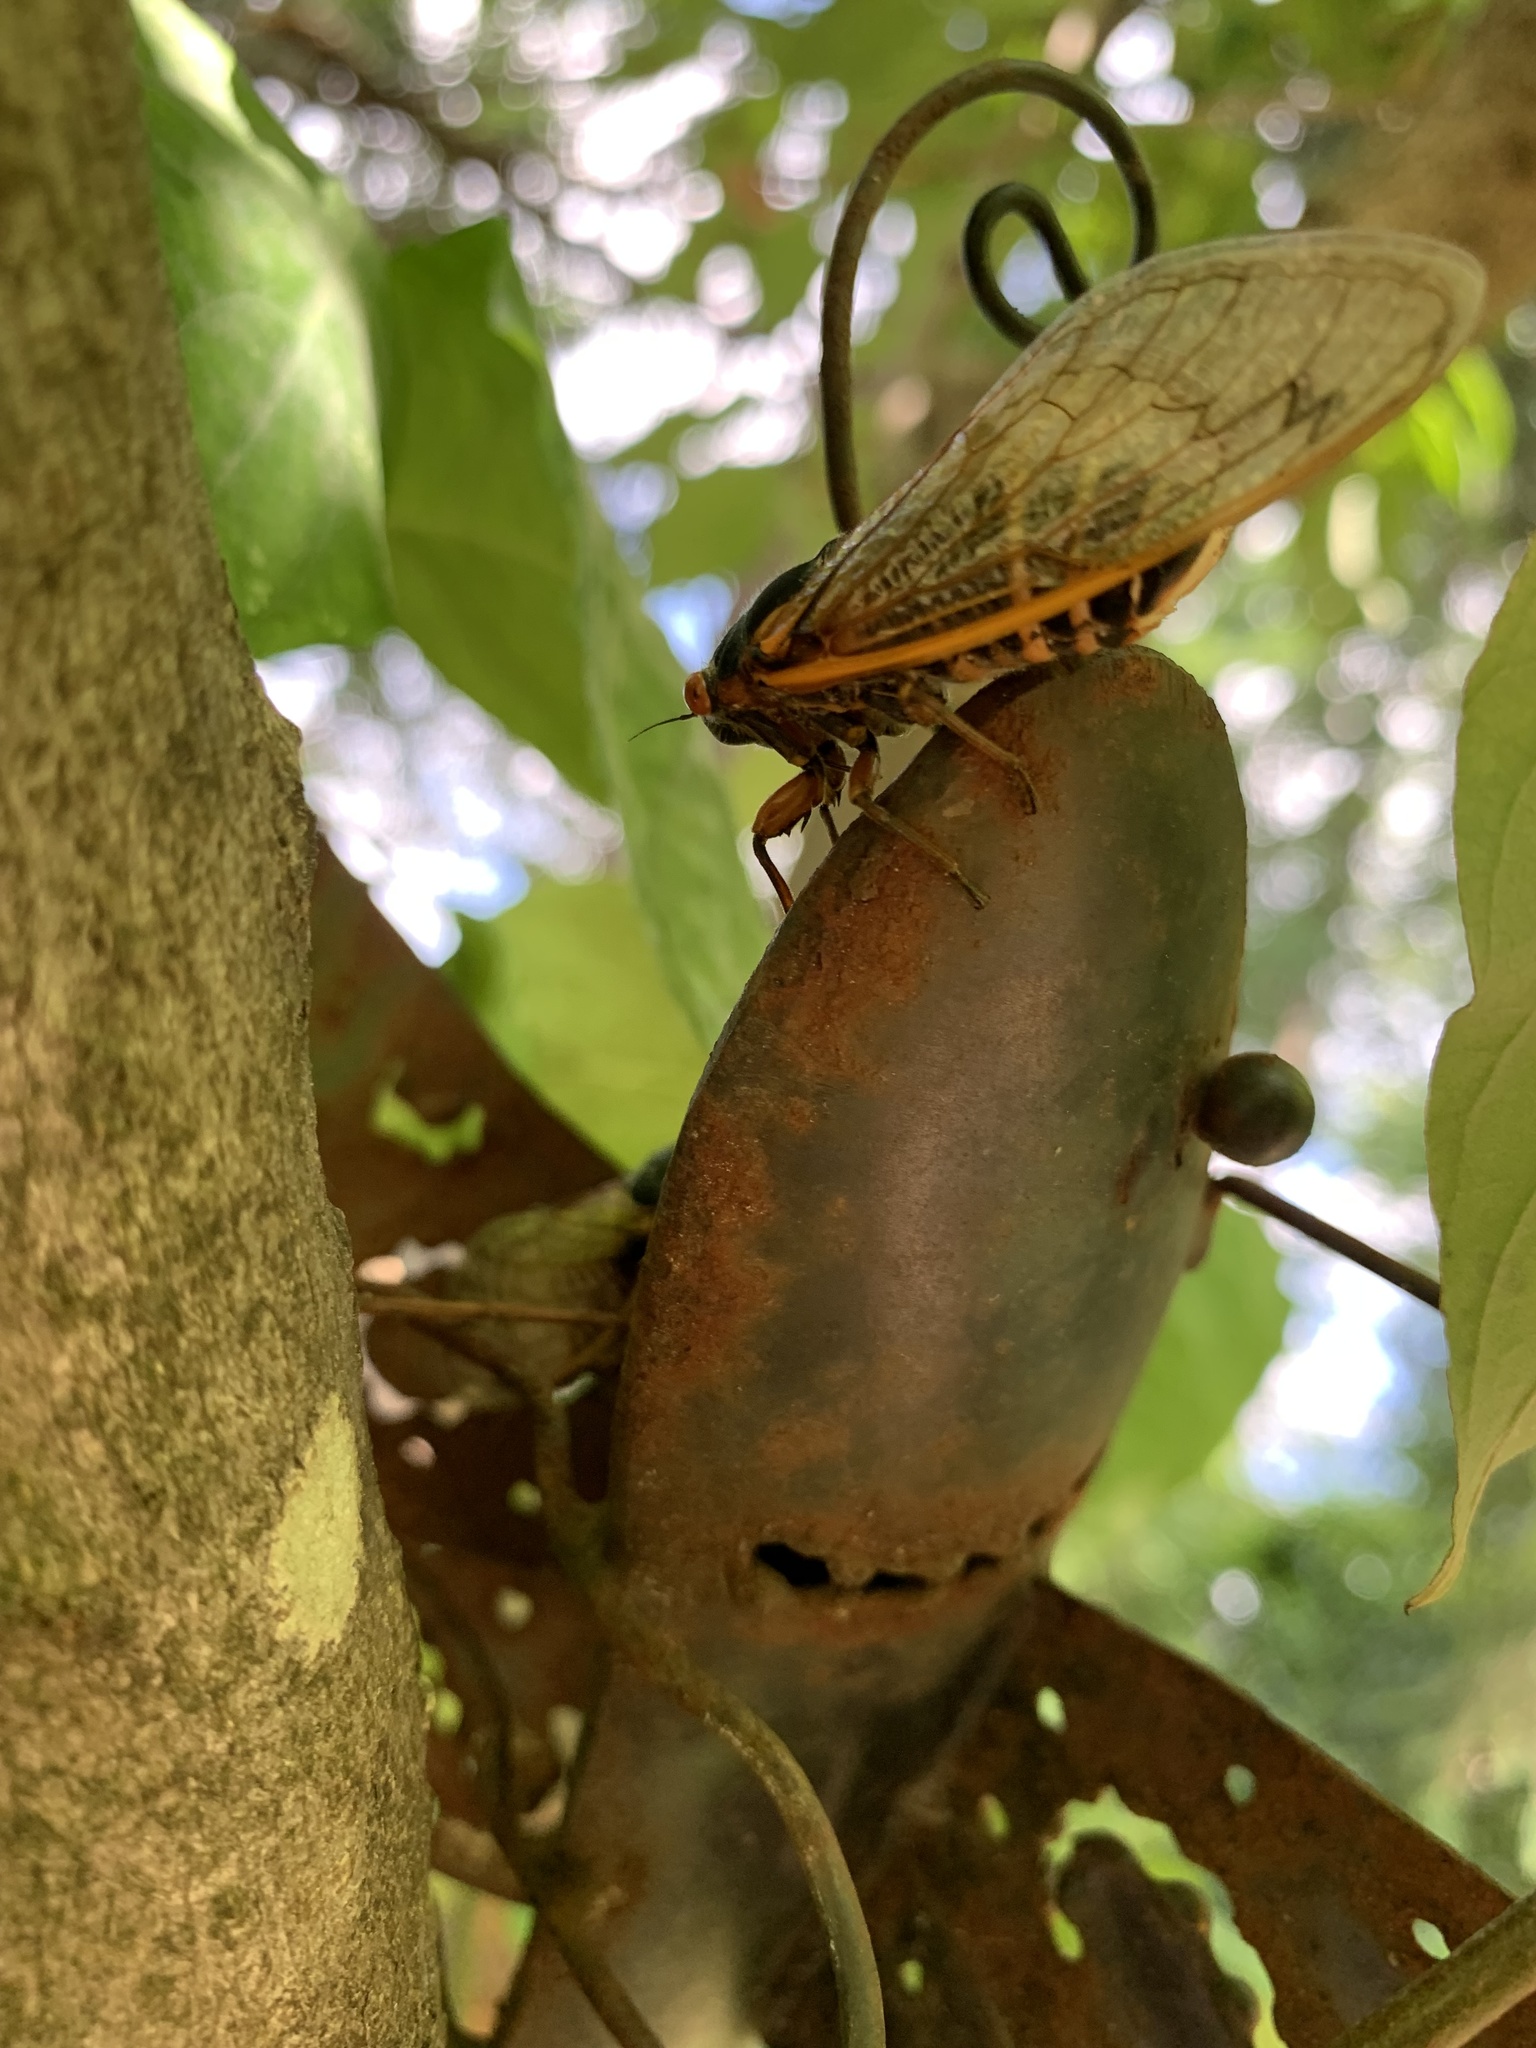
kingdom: Fungi
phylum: Entomophthoromycota
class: Entomophthoromycetes
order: Entomophthorales
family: Entomophthoraceae
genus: Massospora
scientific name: Massospora cicadina
